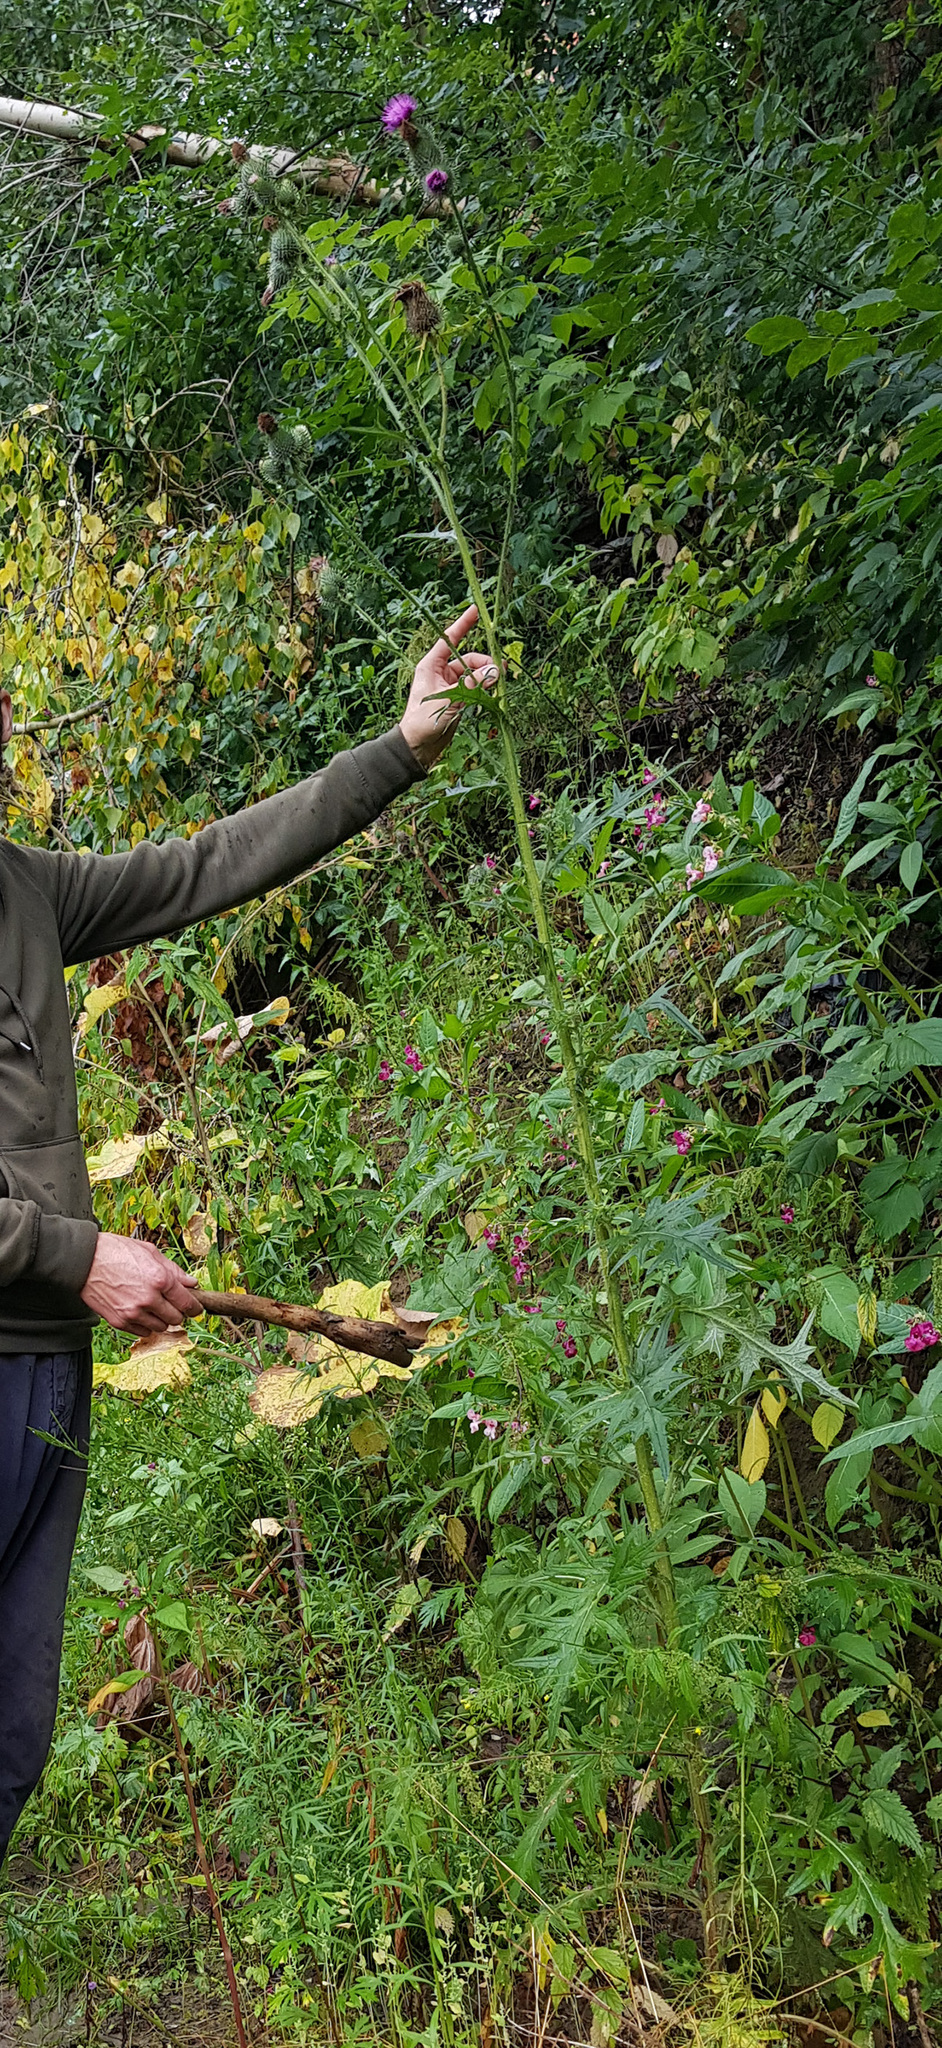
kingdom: Plantae
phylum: Tracheophyta
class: Magnoliopsida
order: Asterales
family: Asteraceae
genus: Cirsium
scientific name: Cirsium vulgare
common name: Bull thistle
